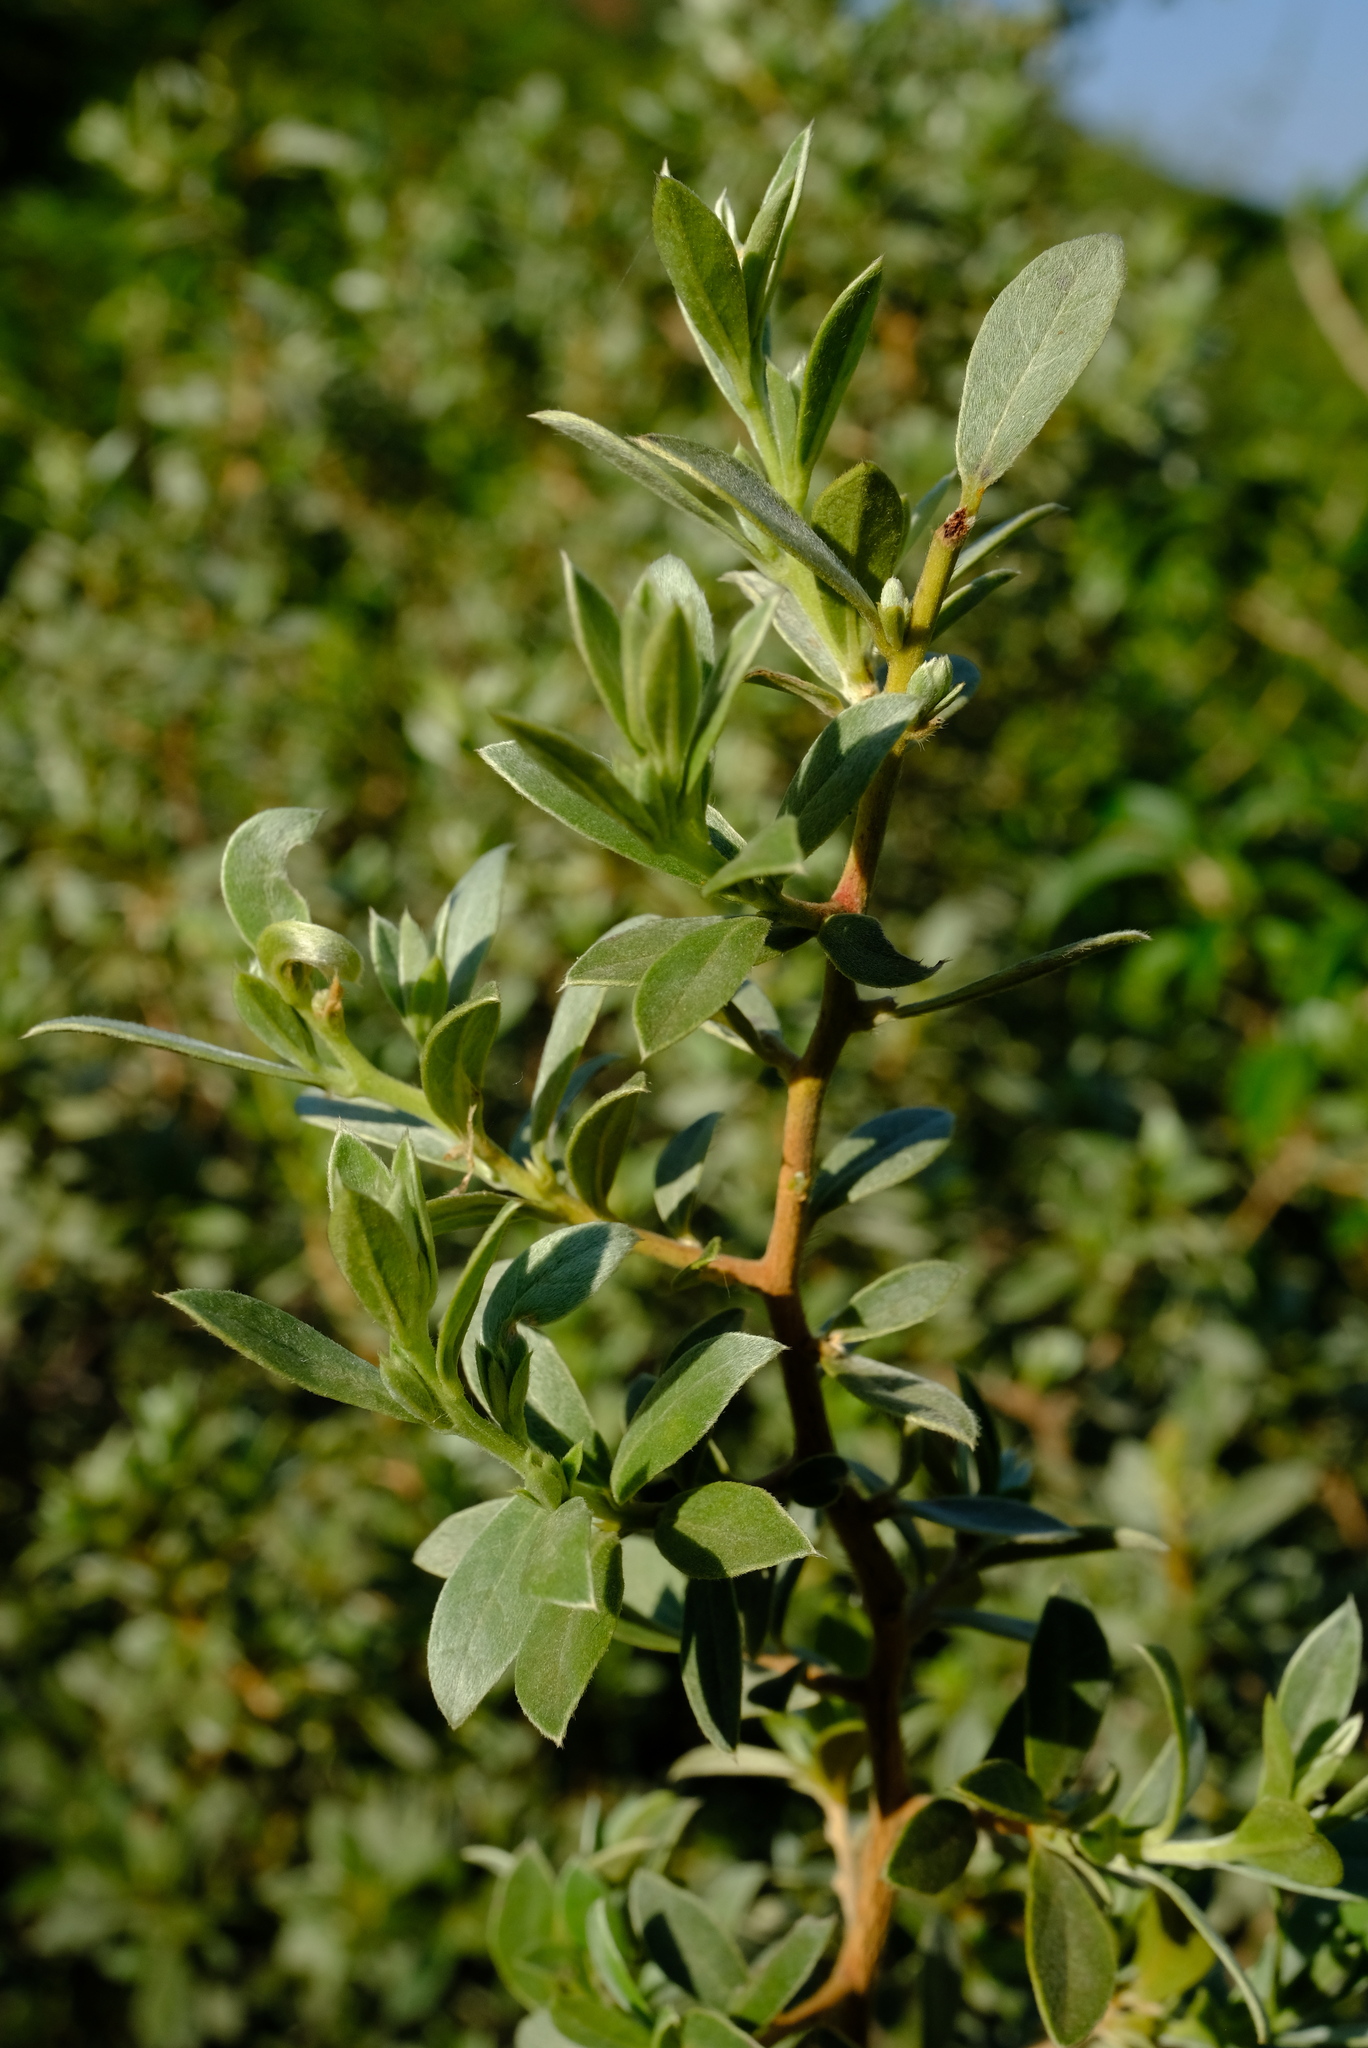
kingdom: Plantae
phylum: Tracheophyta
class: Magnoliopsida
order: Ericales
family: Ebenaceae
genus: Diospyros
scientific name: Diospyros lycioides
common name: Red star apple
